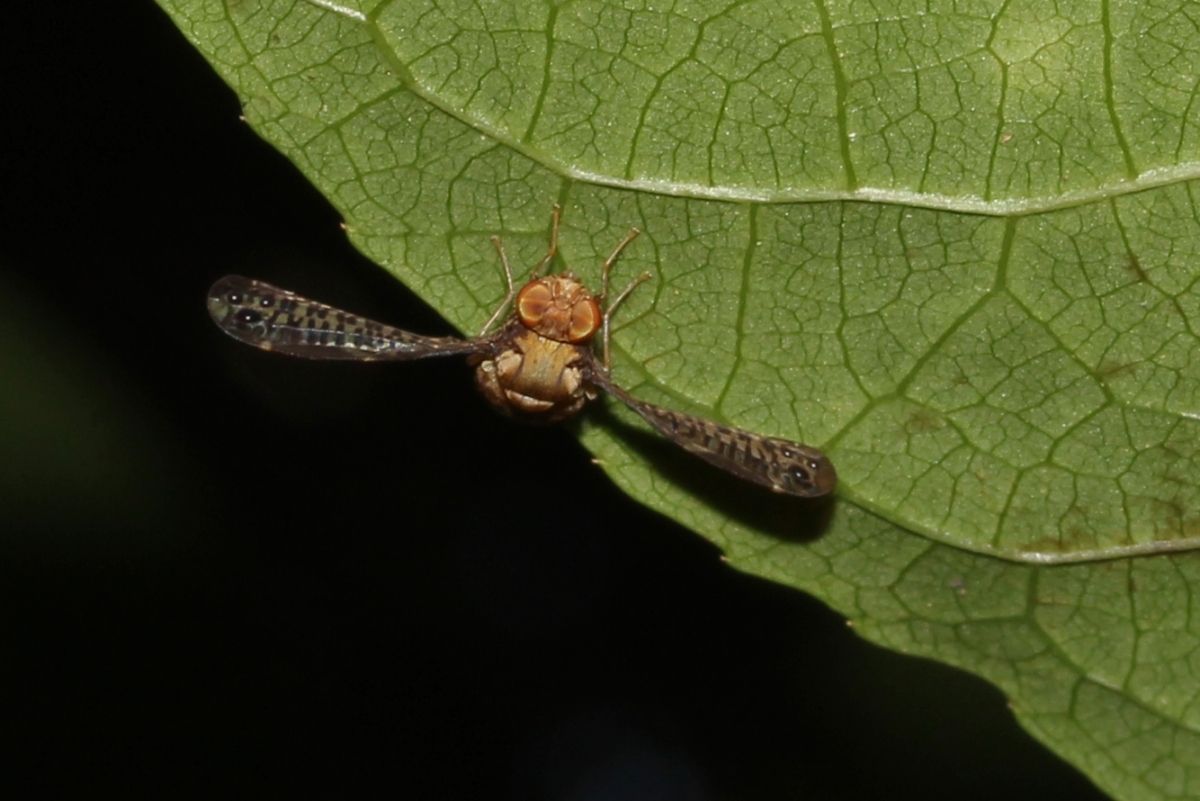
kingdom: Animalia
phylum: Arthropoda
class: Insecta
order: Diptera
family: Ulidiidae
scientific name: Ulidiidae
